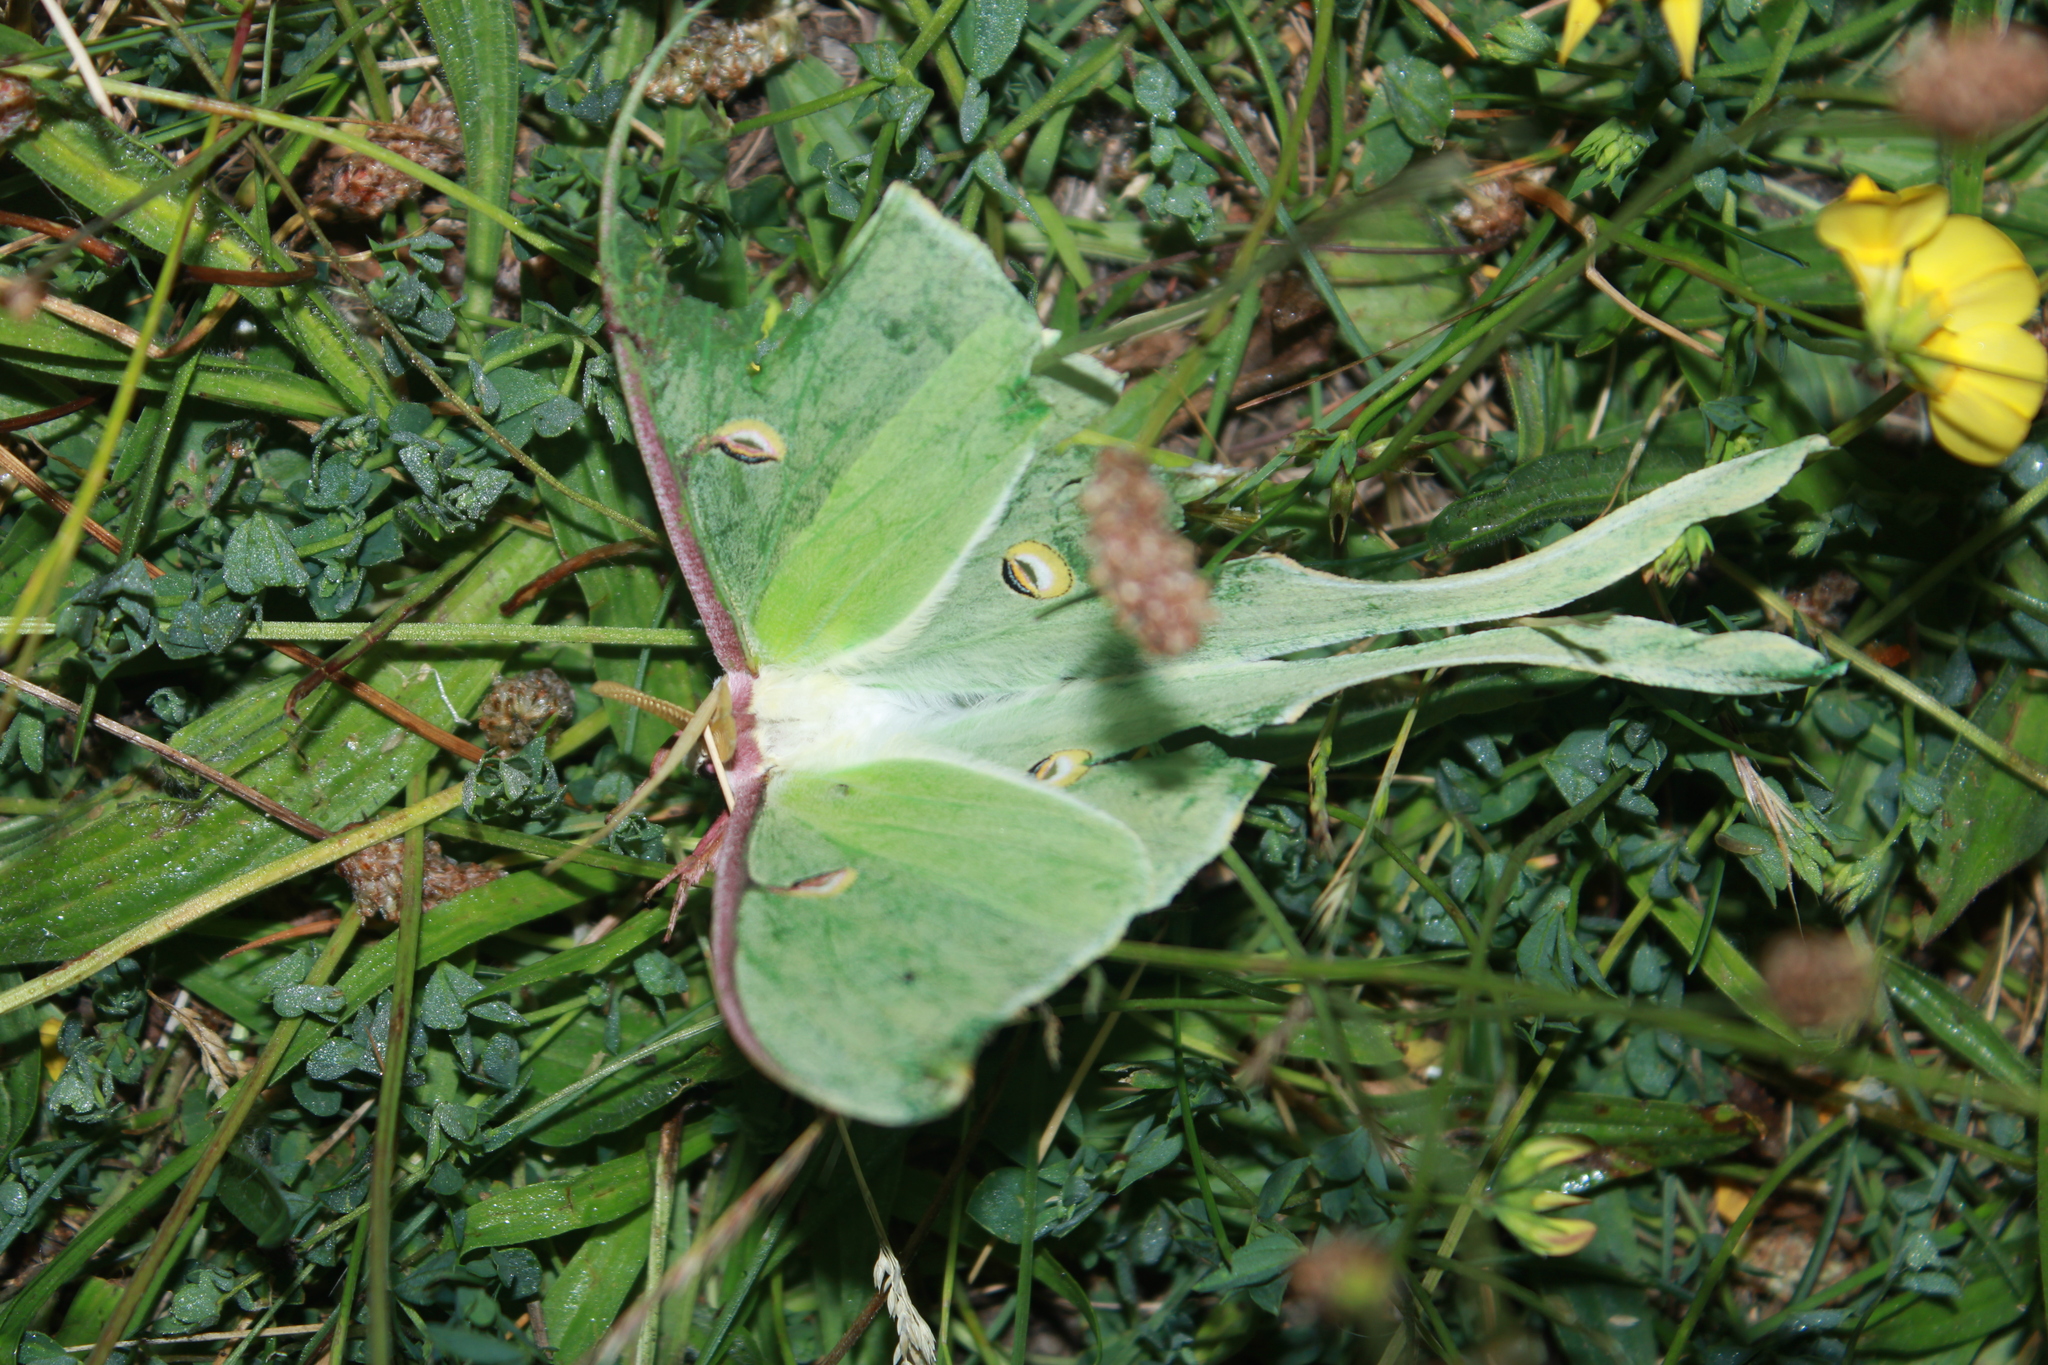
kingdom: Animalia
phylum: Arthropoda
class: Insecta
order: Lepidoptera
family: Saturniidae
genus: Actias
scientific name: Actias luna
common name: Luna moth
